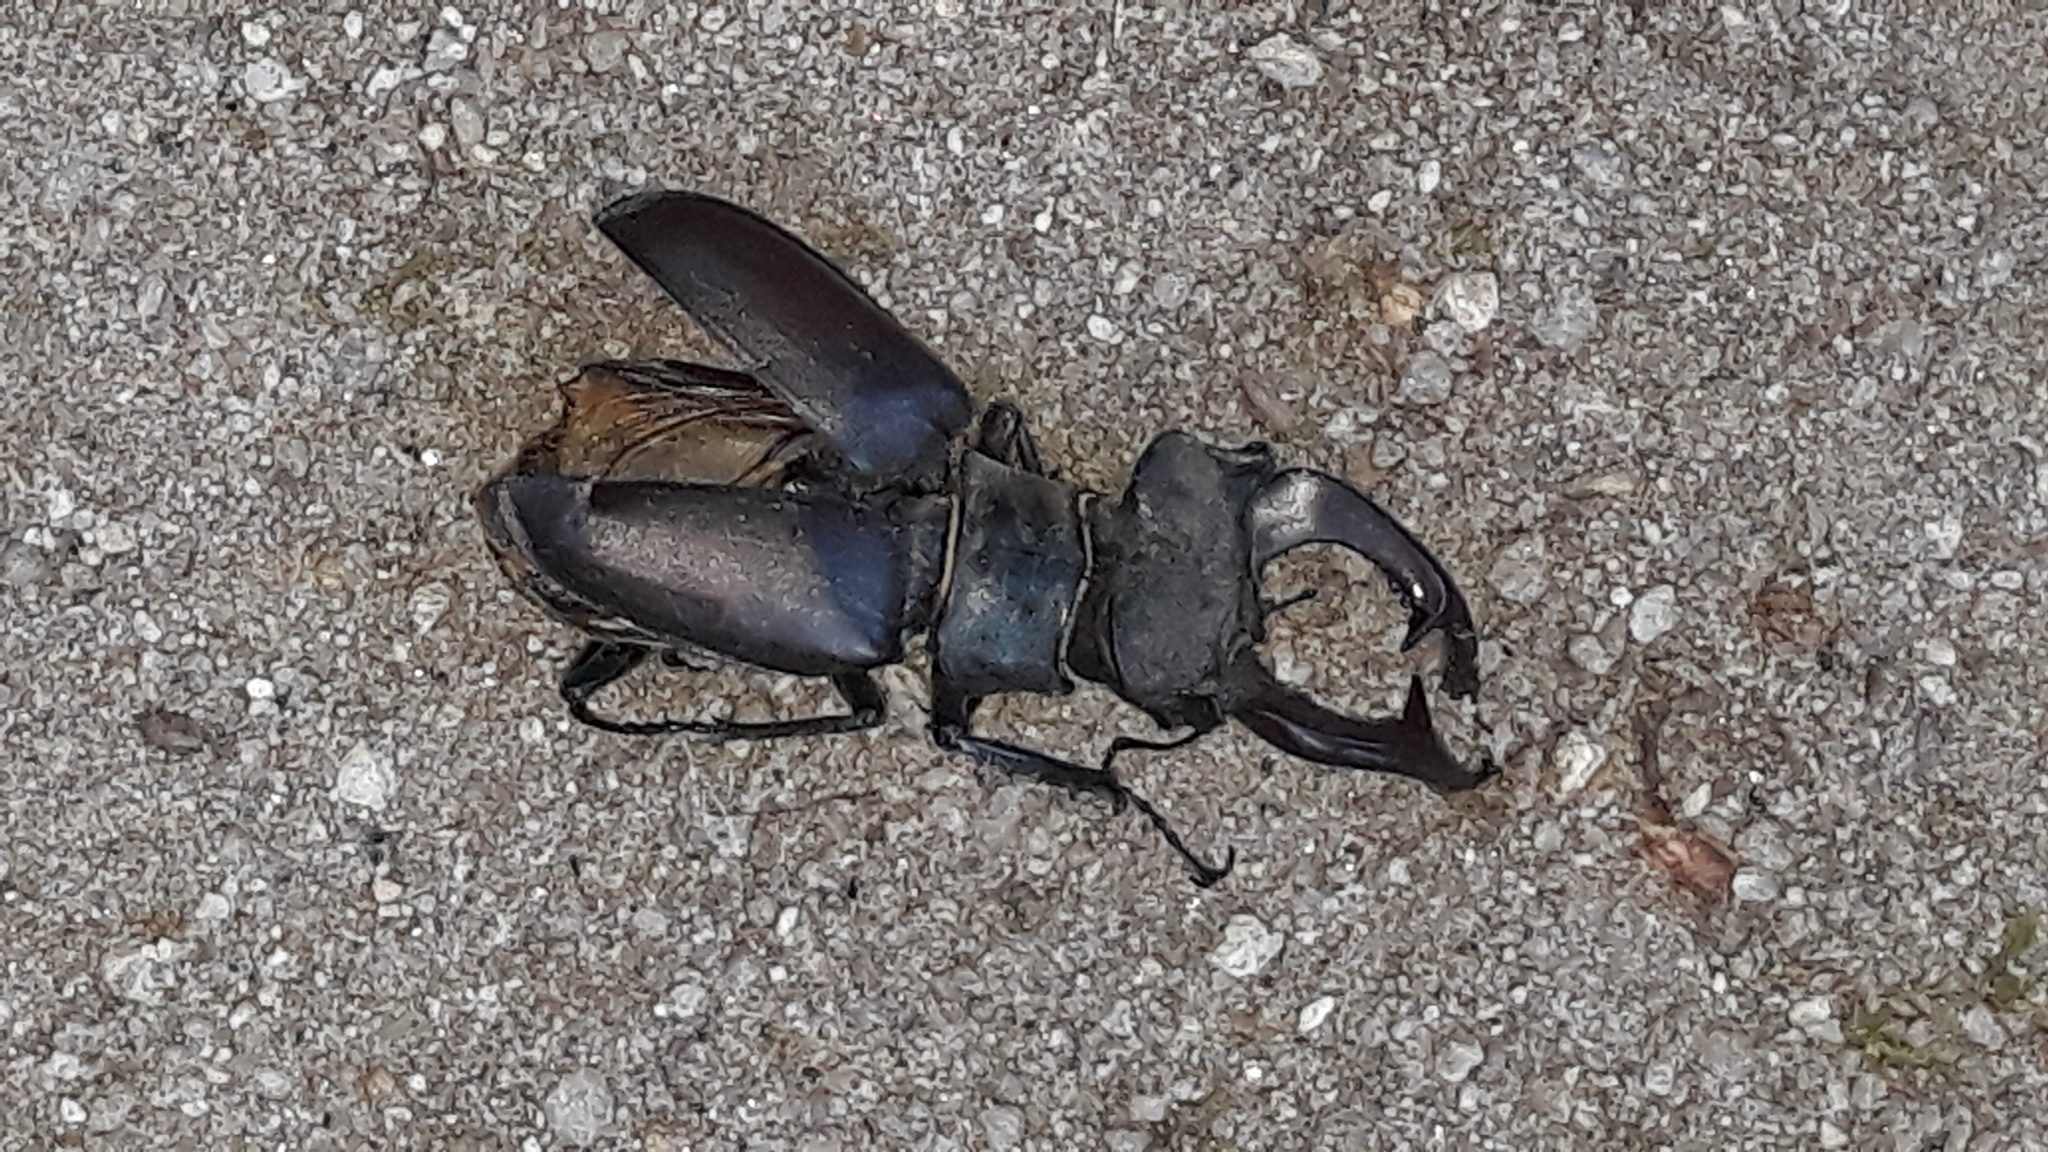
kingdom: Animalia
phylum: Arthropoda
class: Insecta
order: Coleoptera
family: Lucanidae
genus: Lucanus
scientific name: Lucanus cervus
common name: Stag beetle
